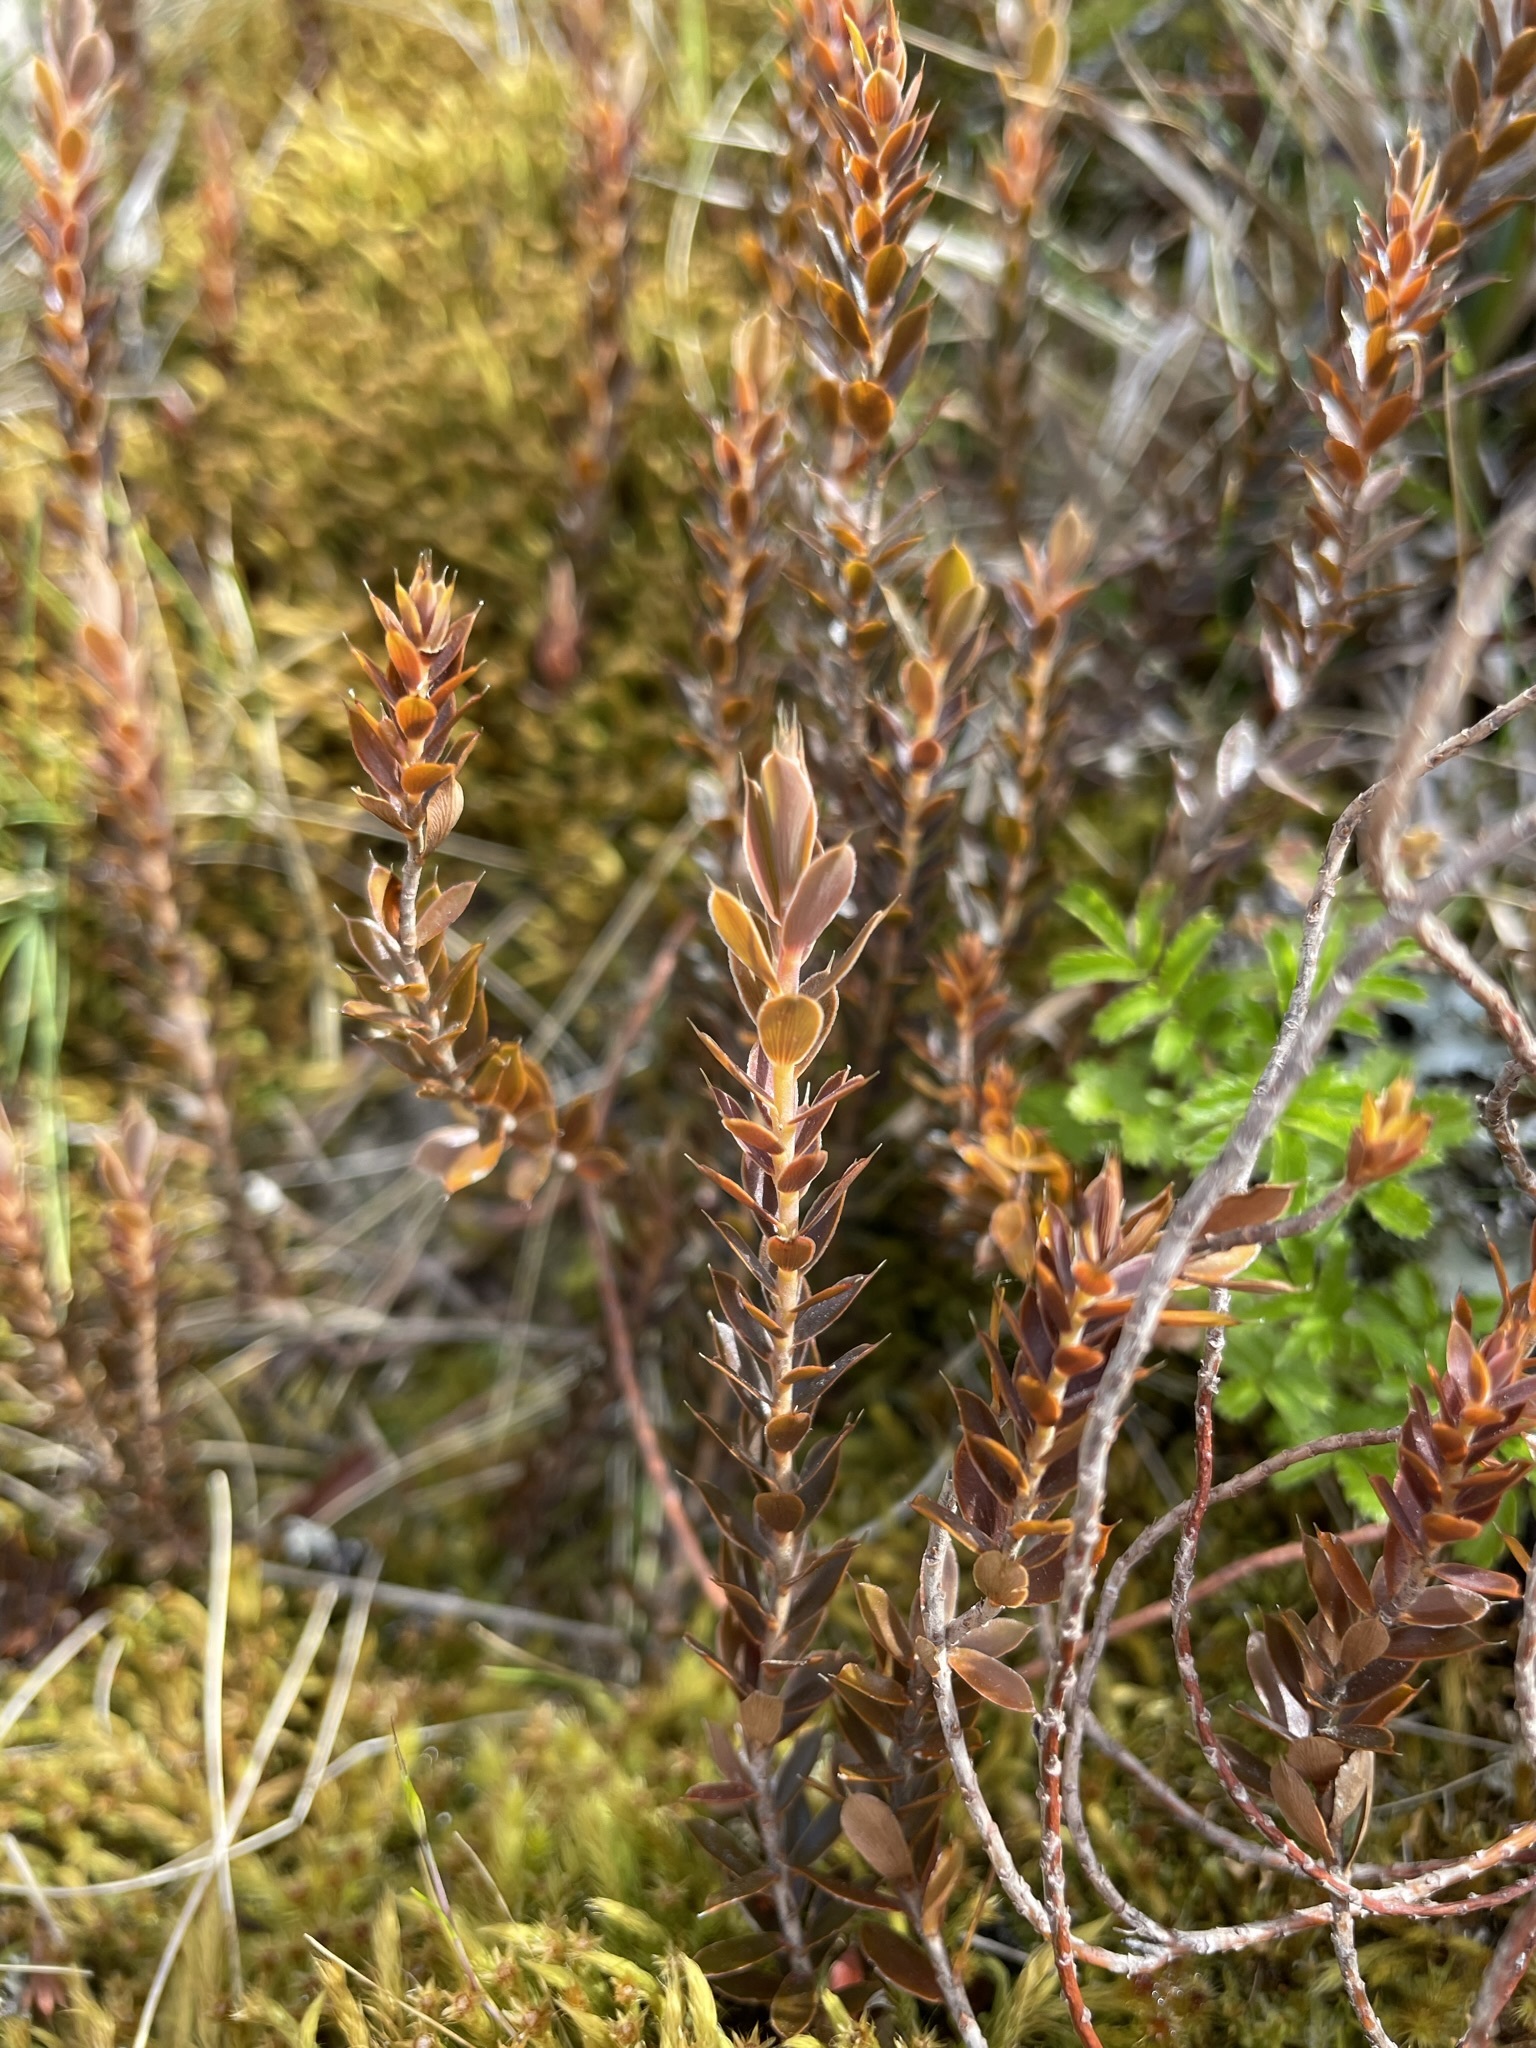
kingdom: Plantae
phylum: Tracheophyta
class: Magnoliopsida
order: Ericales
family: Ericaceae
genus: Styphelia
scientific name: Styphelia nesophila
